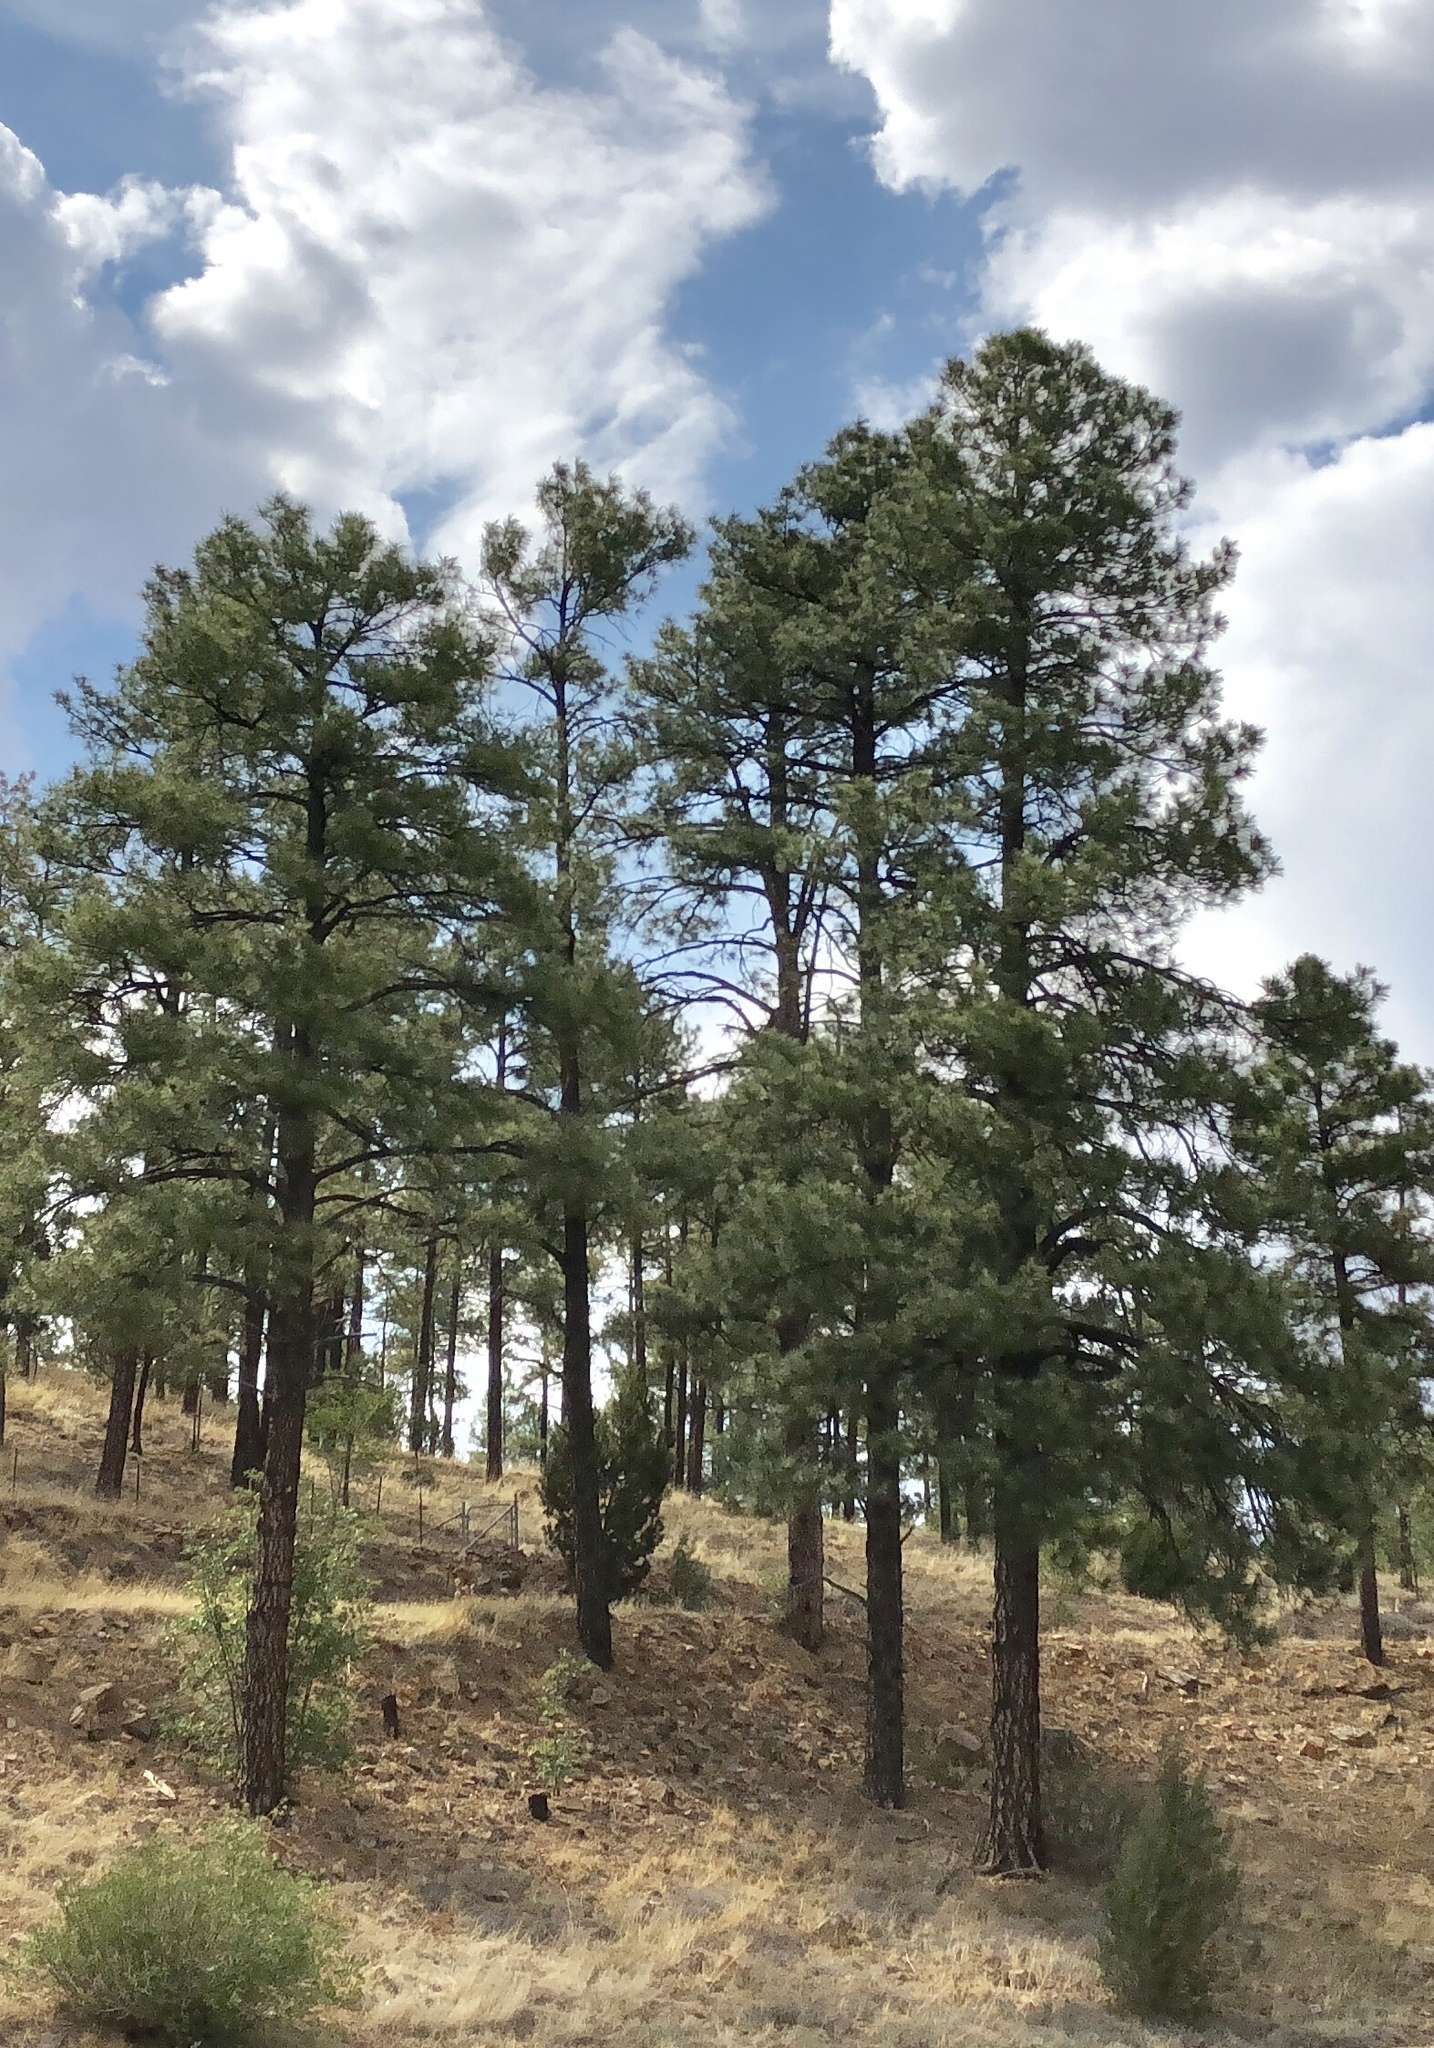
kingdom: Plantae
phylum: Tracheophyta
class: Pinopsida
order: Pinales
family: Pinaceae
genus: Pinus
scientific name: Pinus ponderosa
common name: Western yellow-pine
